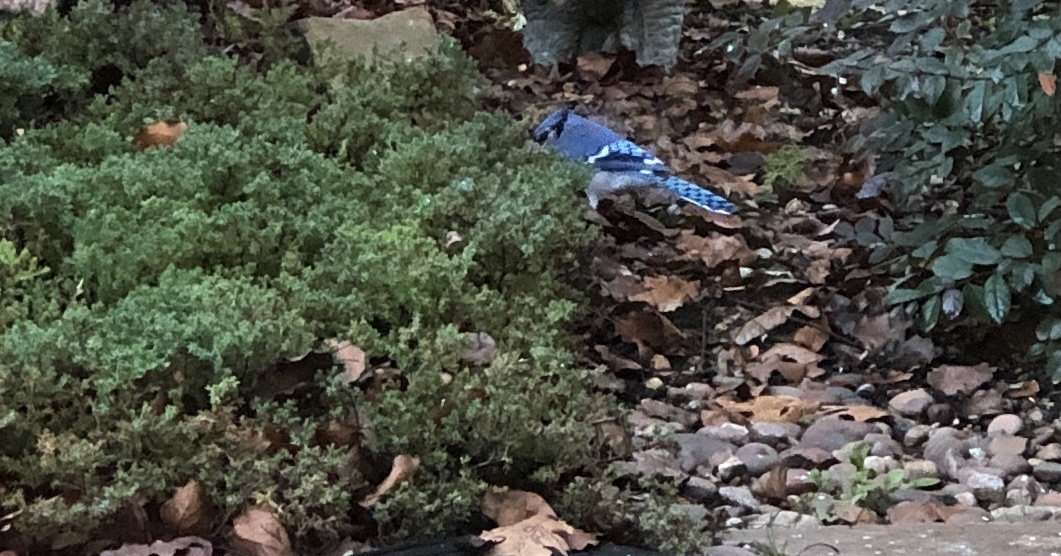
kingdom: Animalia
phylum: Chordata
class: Aves
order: Passeriformes
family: Corvidae
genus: Cyanocitta
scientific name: Cyanocitta cristata
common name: Blue jay
